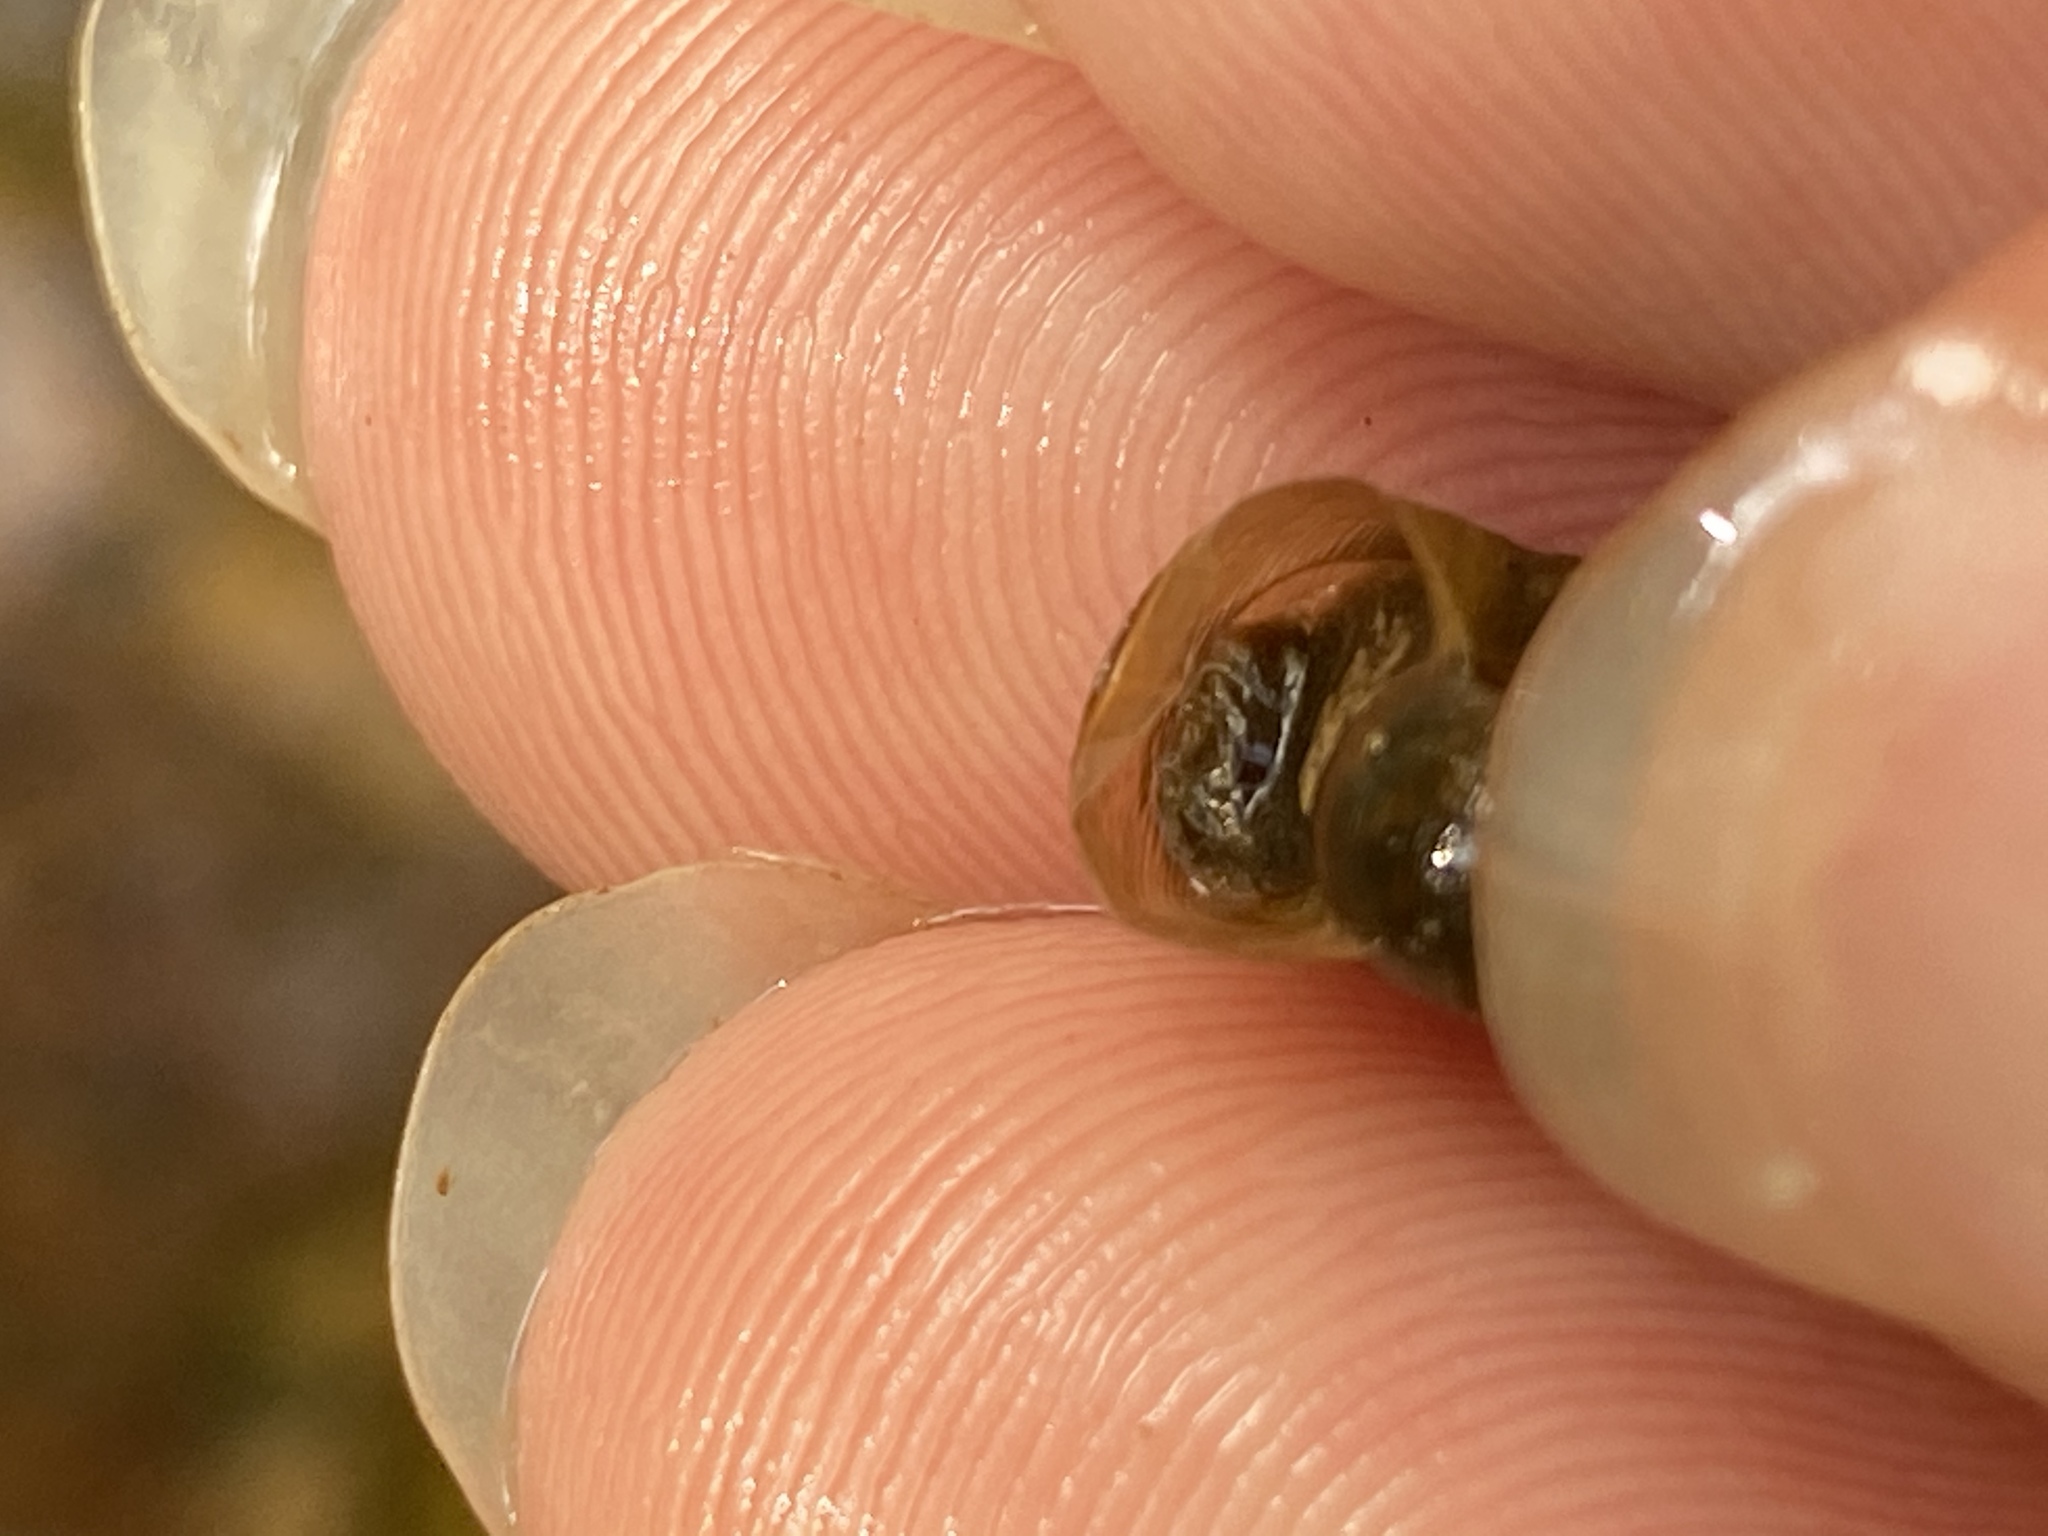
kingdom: Animalia
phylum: Mollusca
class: Gastropoda
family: Planorbidae
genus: Planorbella
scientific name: Planorbella trivolvis
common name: Marsh rams-horn
